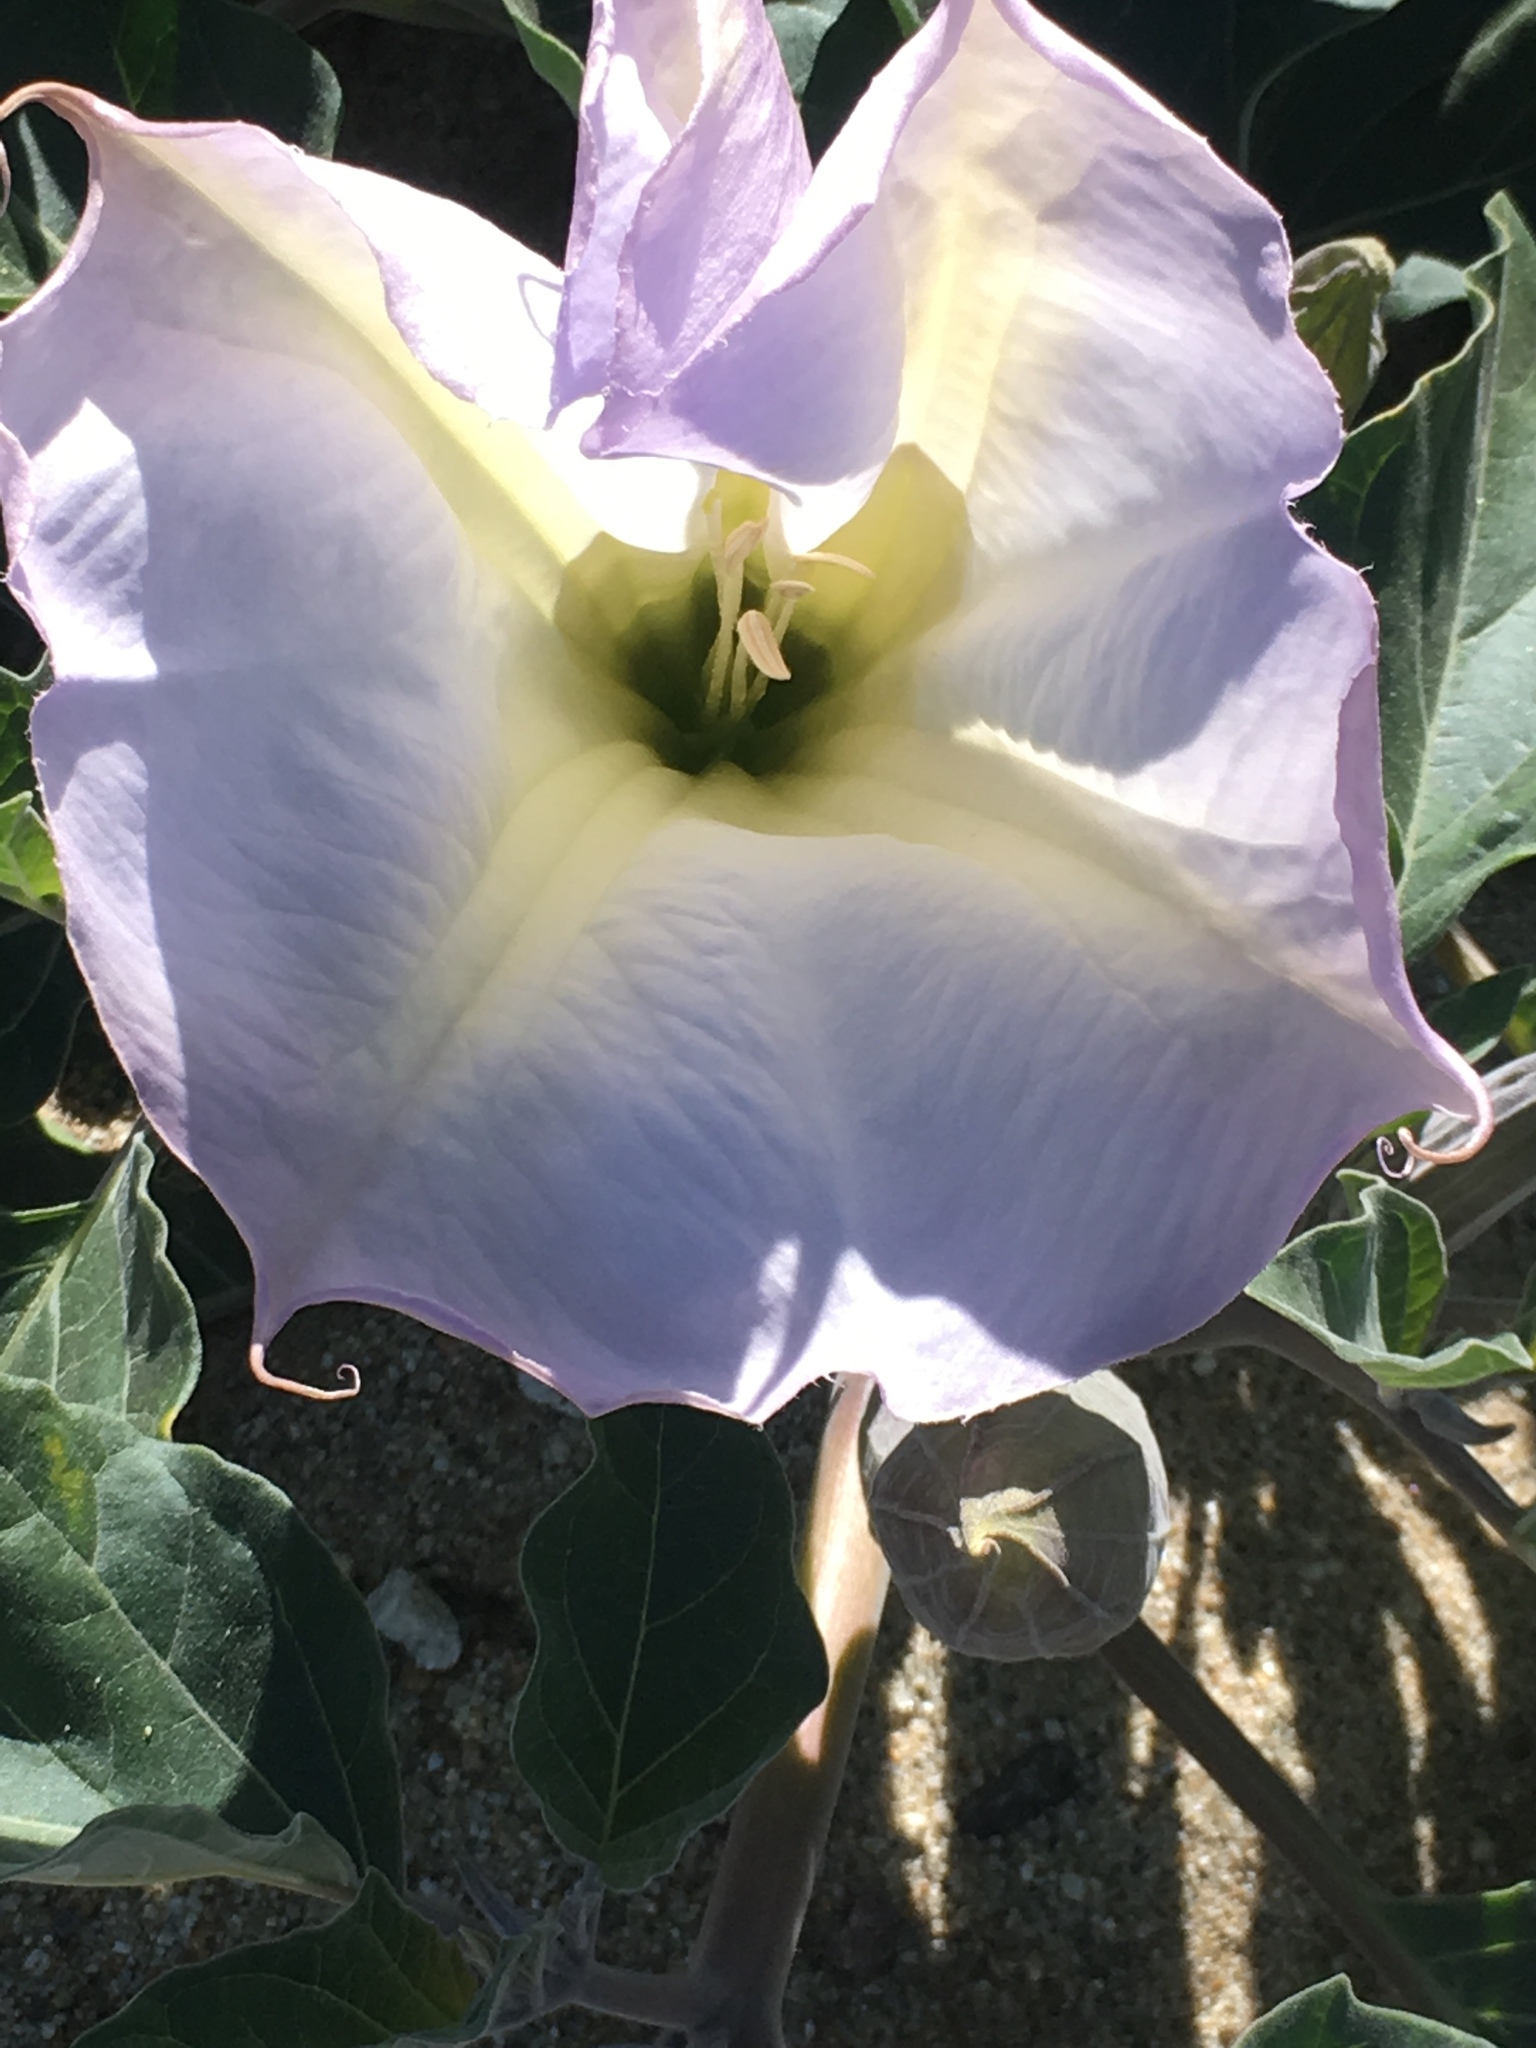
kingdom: Plantae
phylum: Tracheophyta
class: Magnoliopsida
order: Solanales
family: Solanaceae
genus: Datura
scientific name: Datura wrightii
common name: Sacred thorn-apple
